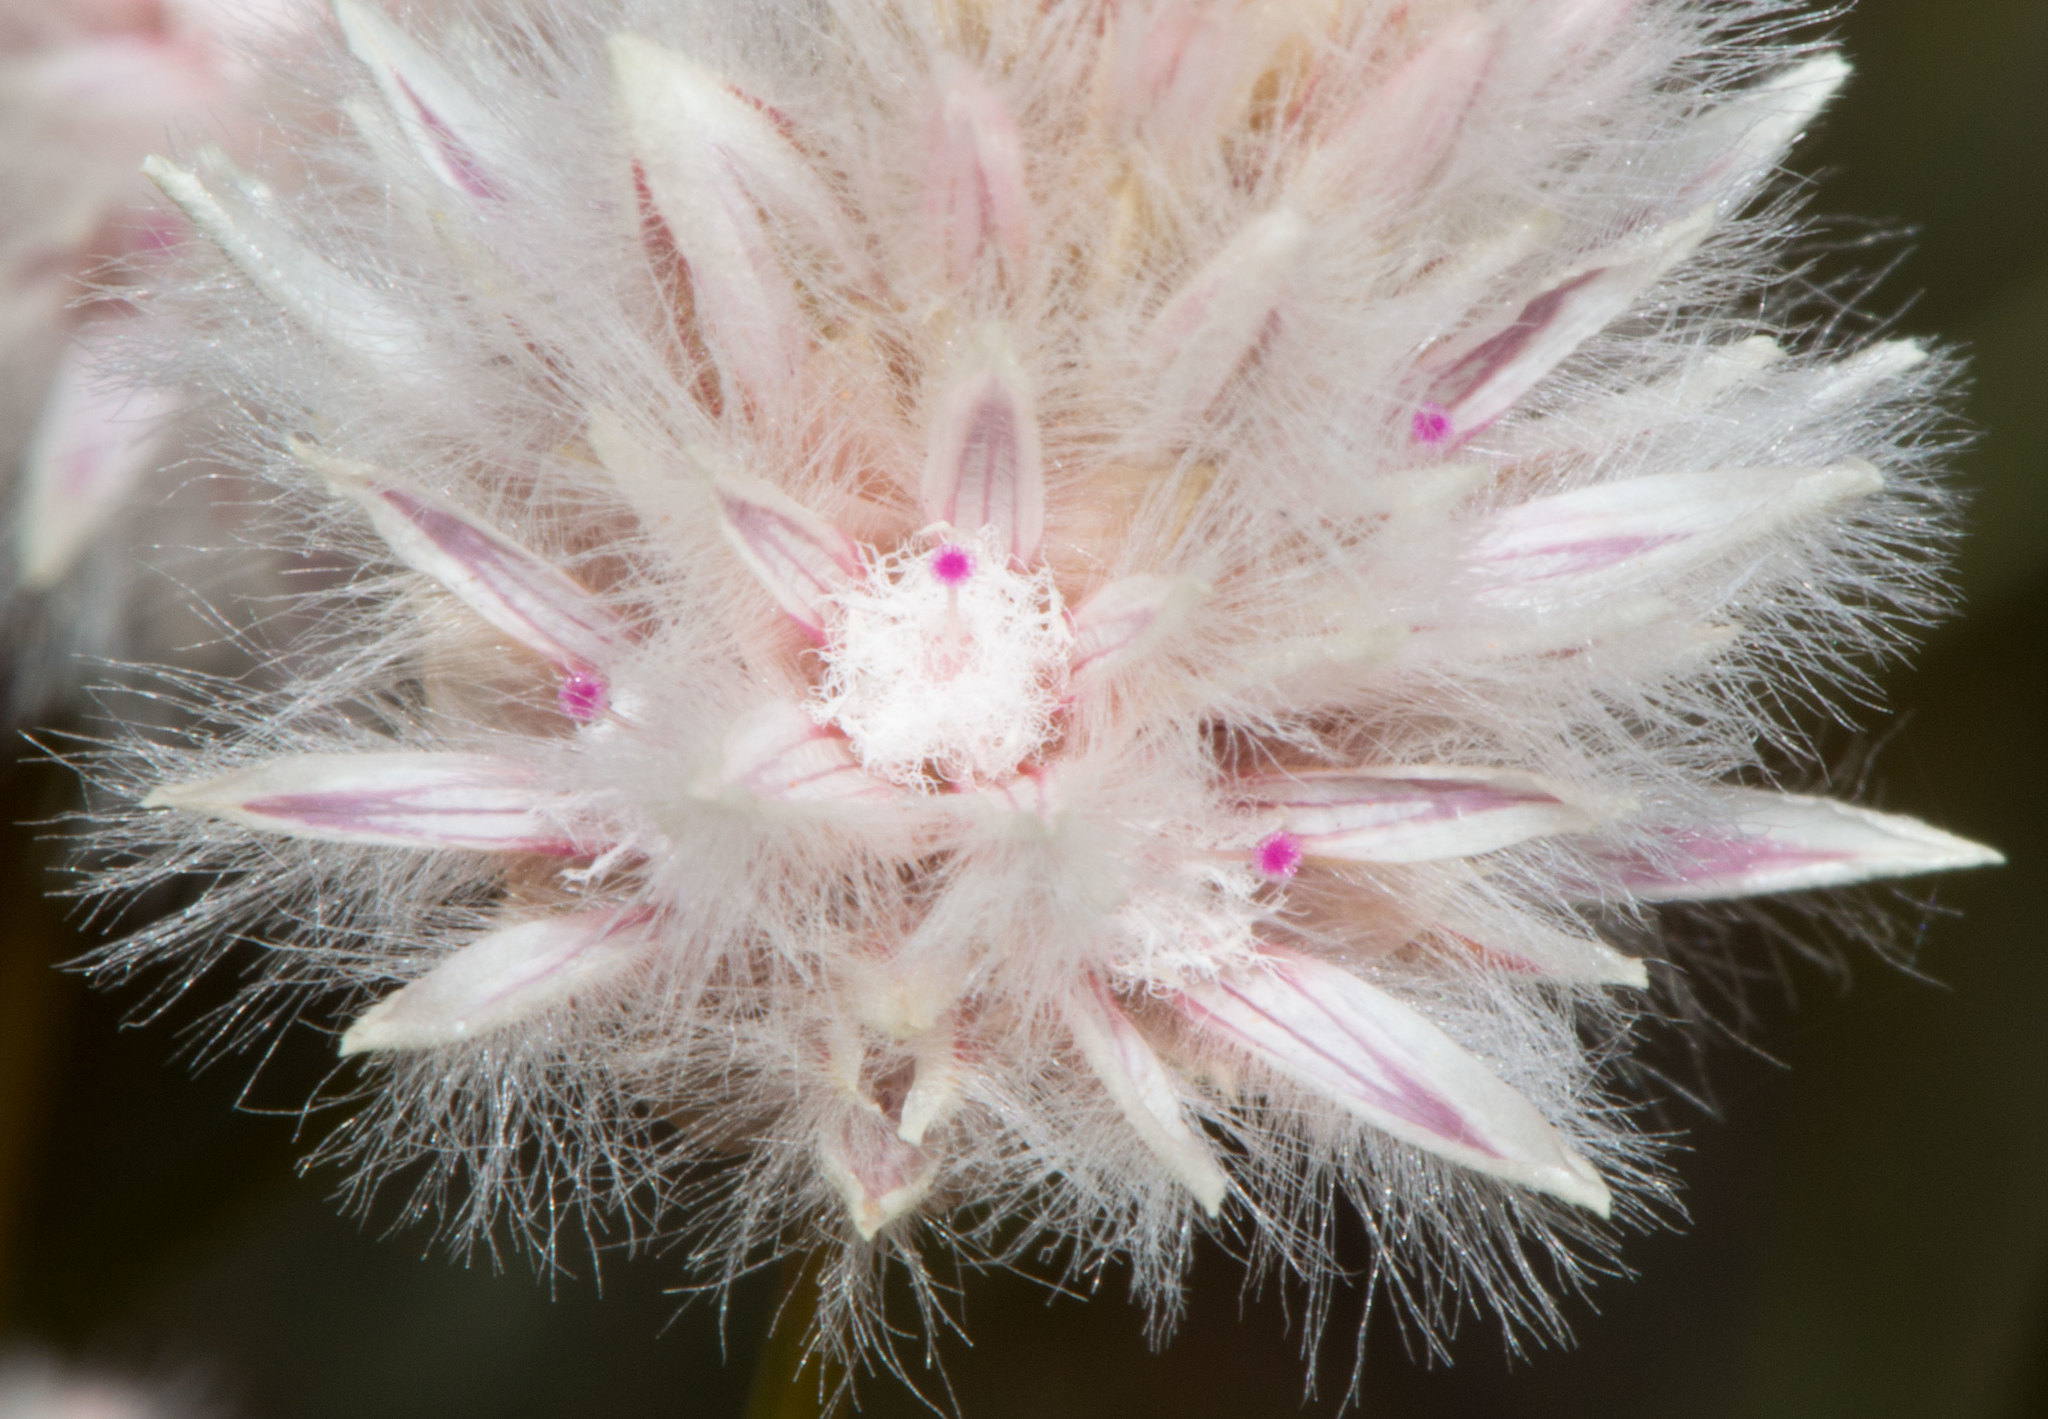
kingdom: Plantae
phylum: Tracheophyta
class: Magnoliopsida
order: Caryophyllales
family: Amaranthaceae
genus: Ptilotus
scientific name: Ptilotus schwartzii
